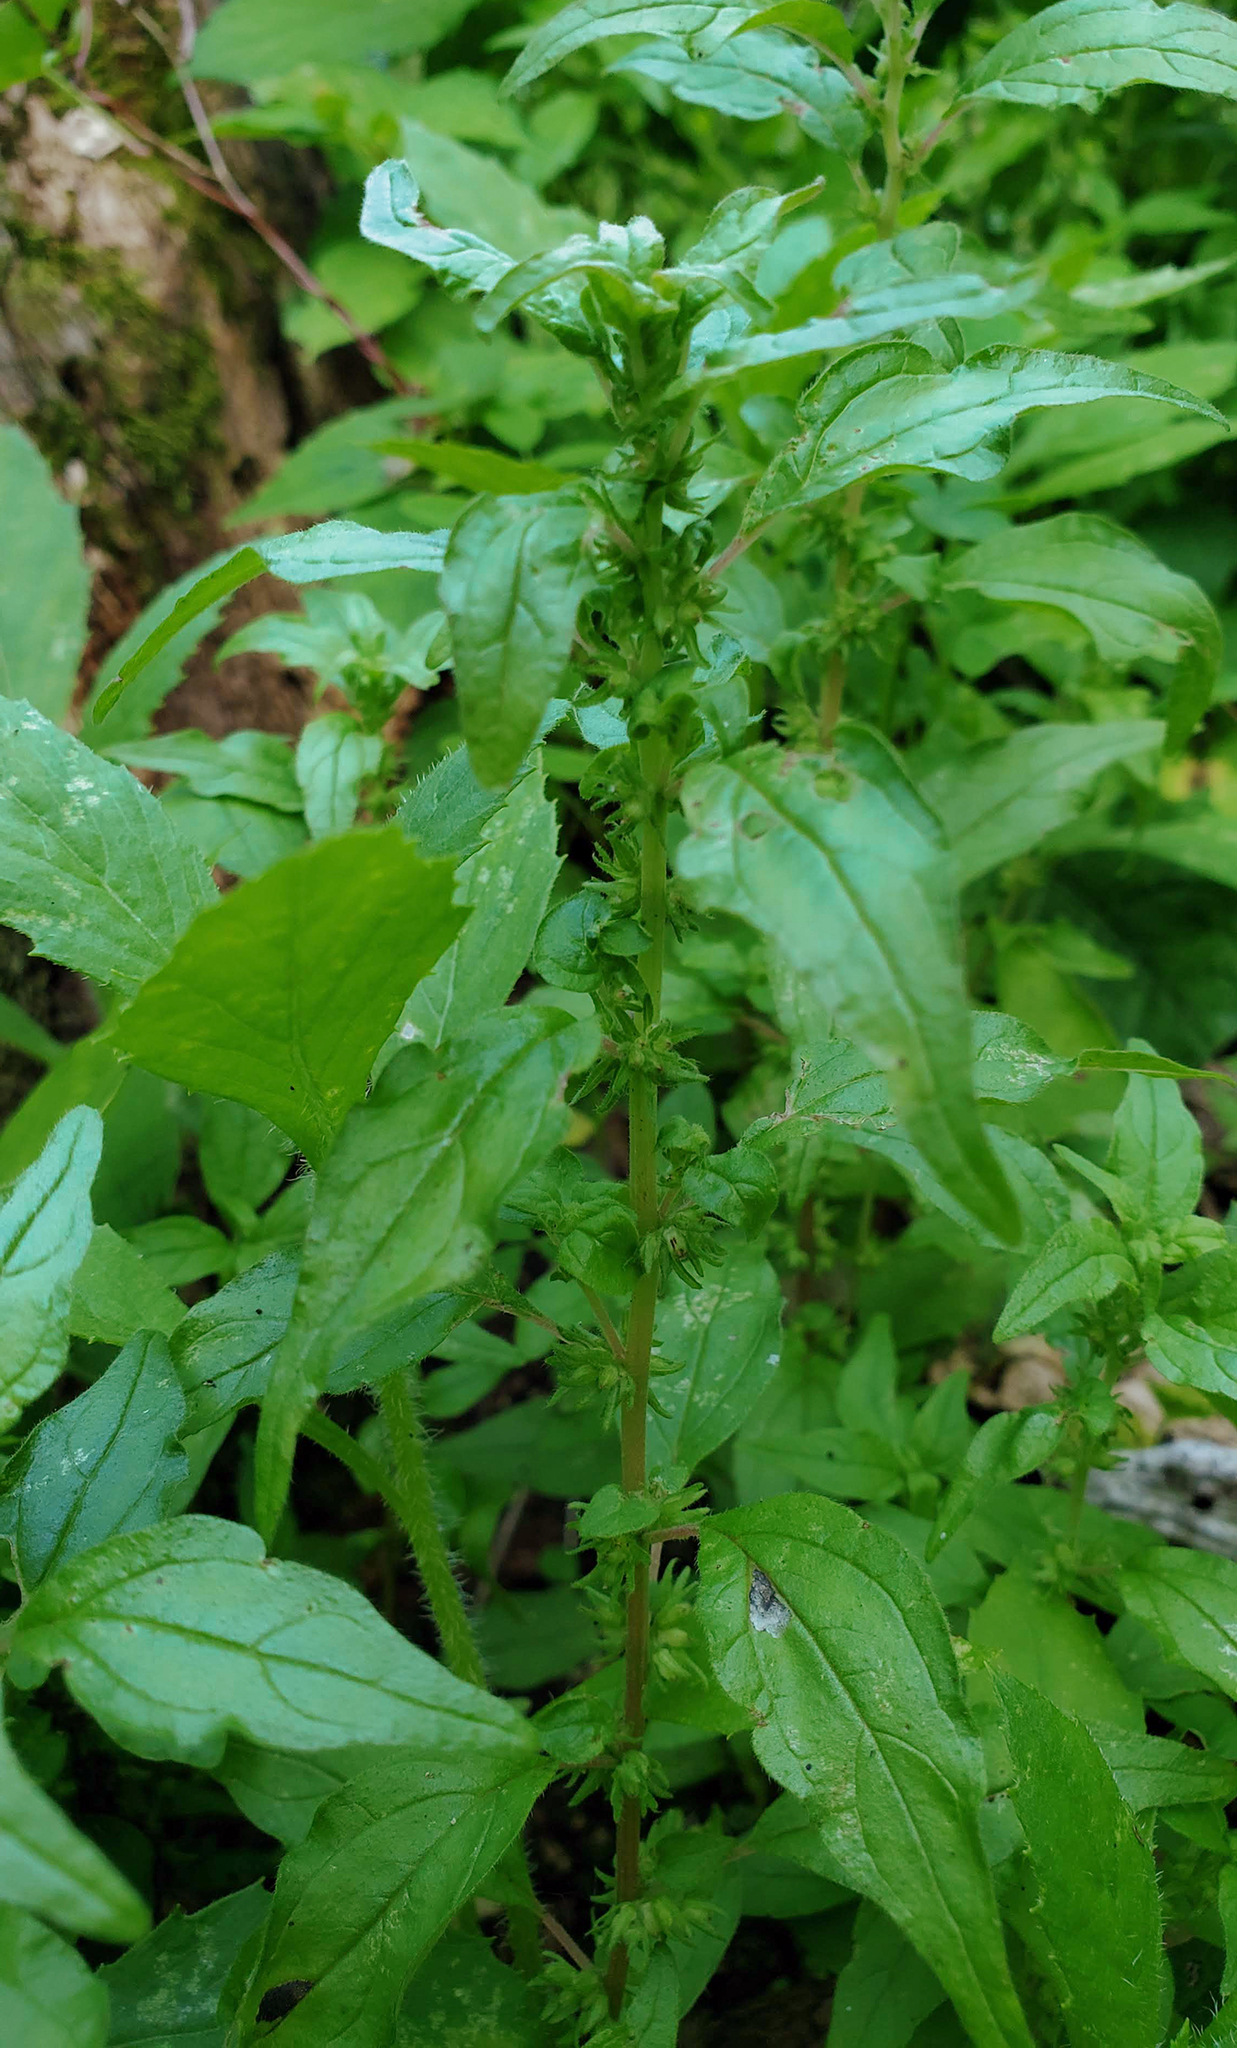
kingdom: Plantae
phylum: Tracheophyta
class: Magnoliopsida
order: Rosales
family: Urticaceae
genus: Parietaria
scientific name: Parietaria pensylvanica
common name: Pennsylvania pellitory
